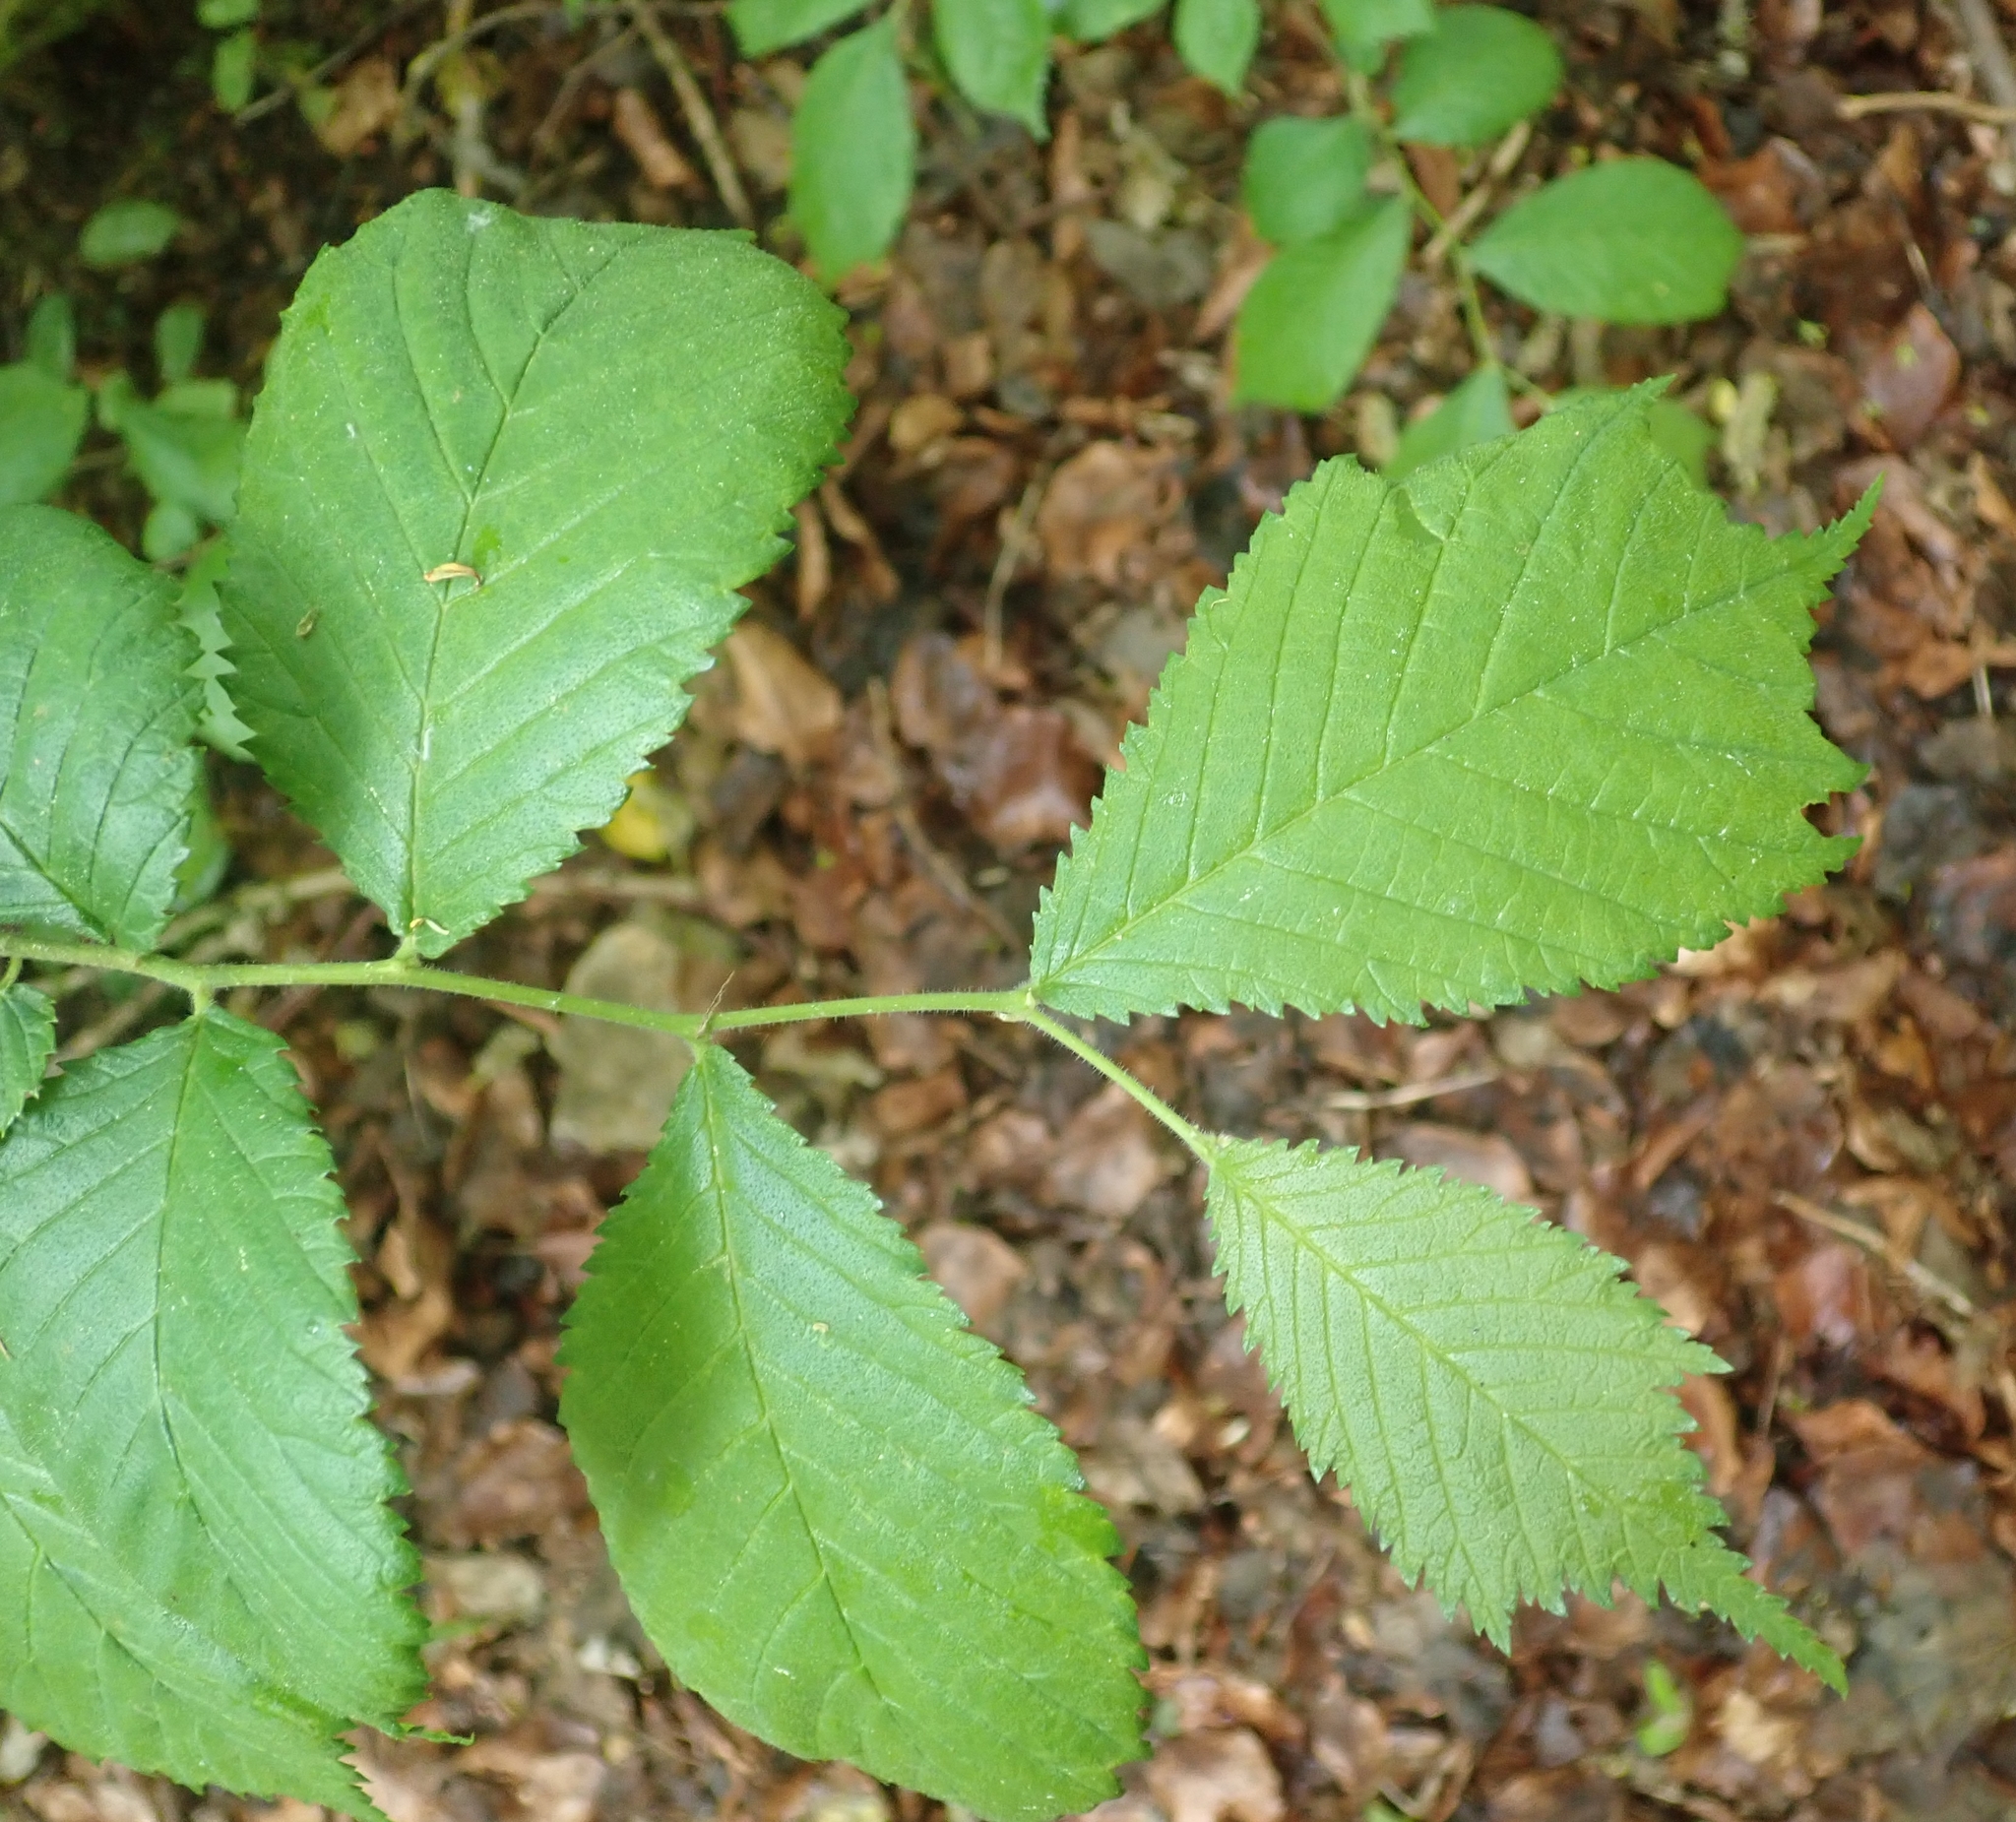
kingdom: Plantae
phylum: Tracheophyta
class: Magnoliopsida
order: Rosales
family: Ulmaceae
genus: Ulmus
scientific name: Ulmus glabra
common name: Wych elm
